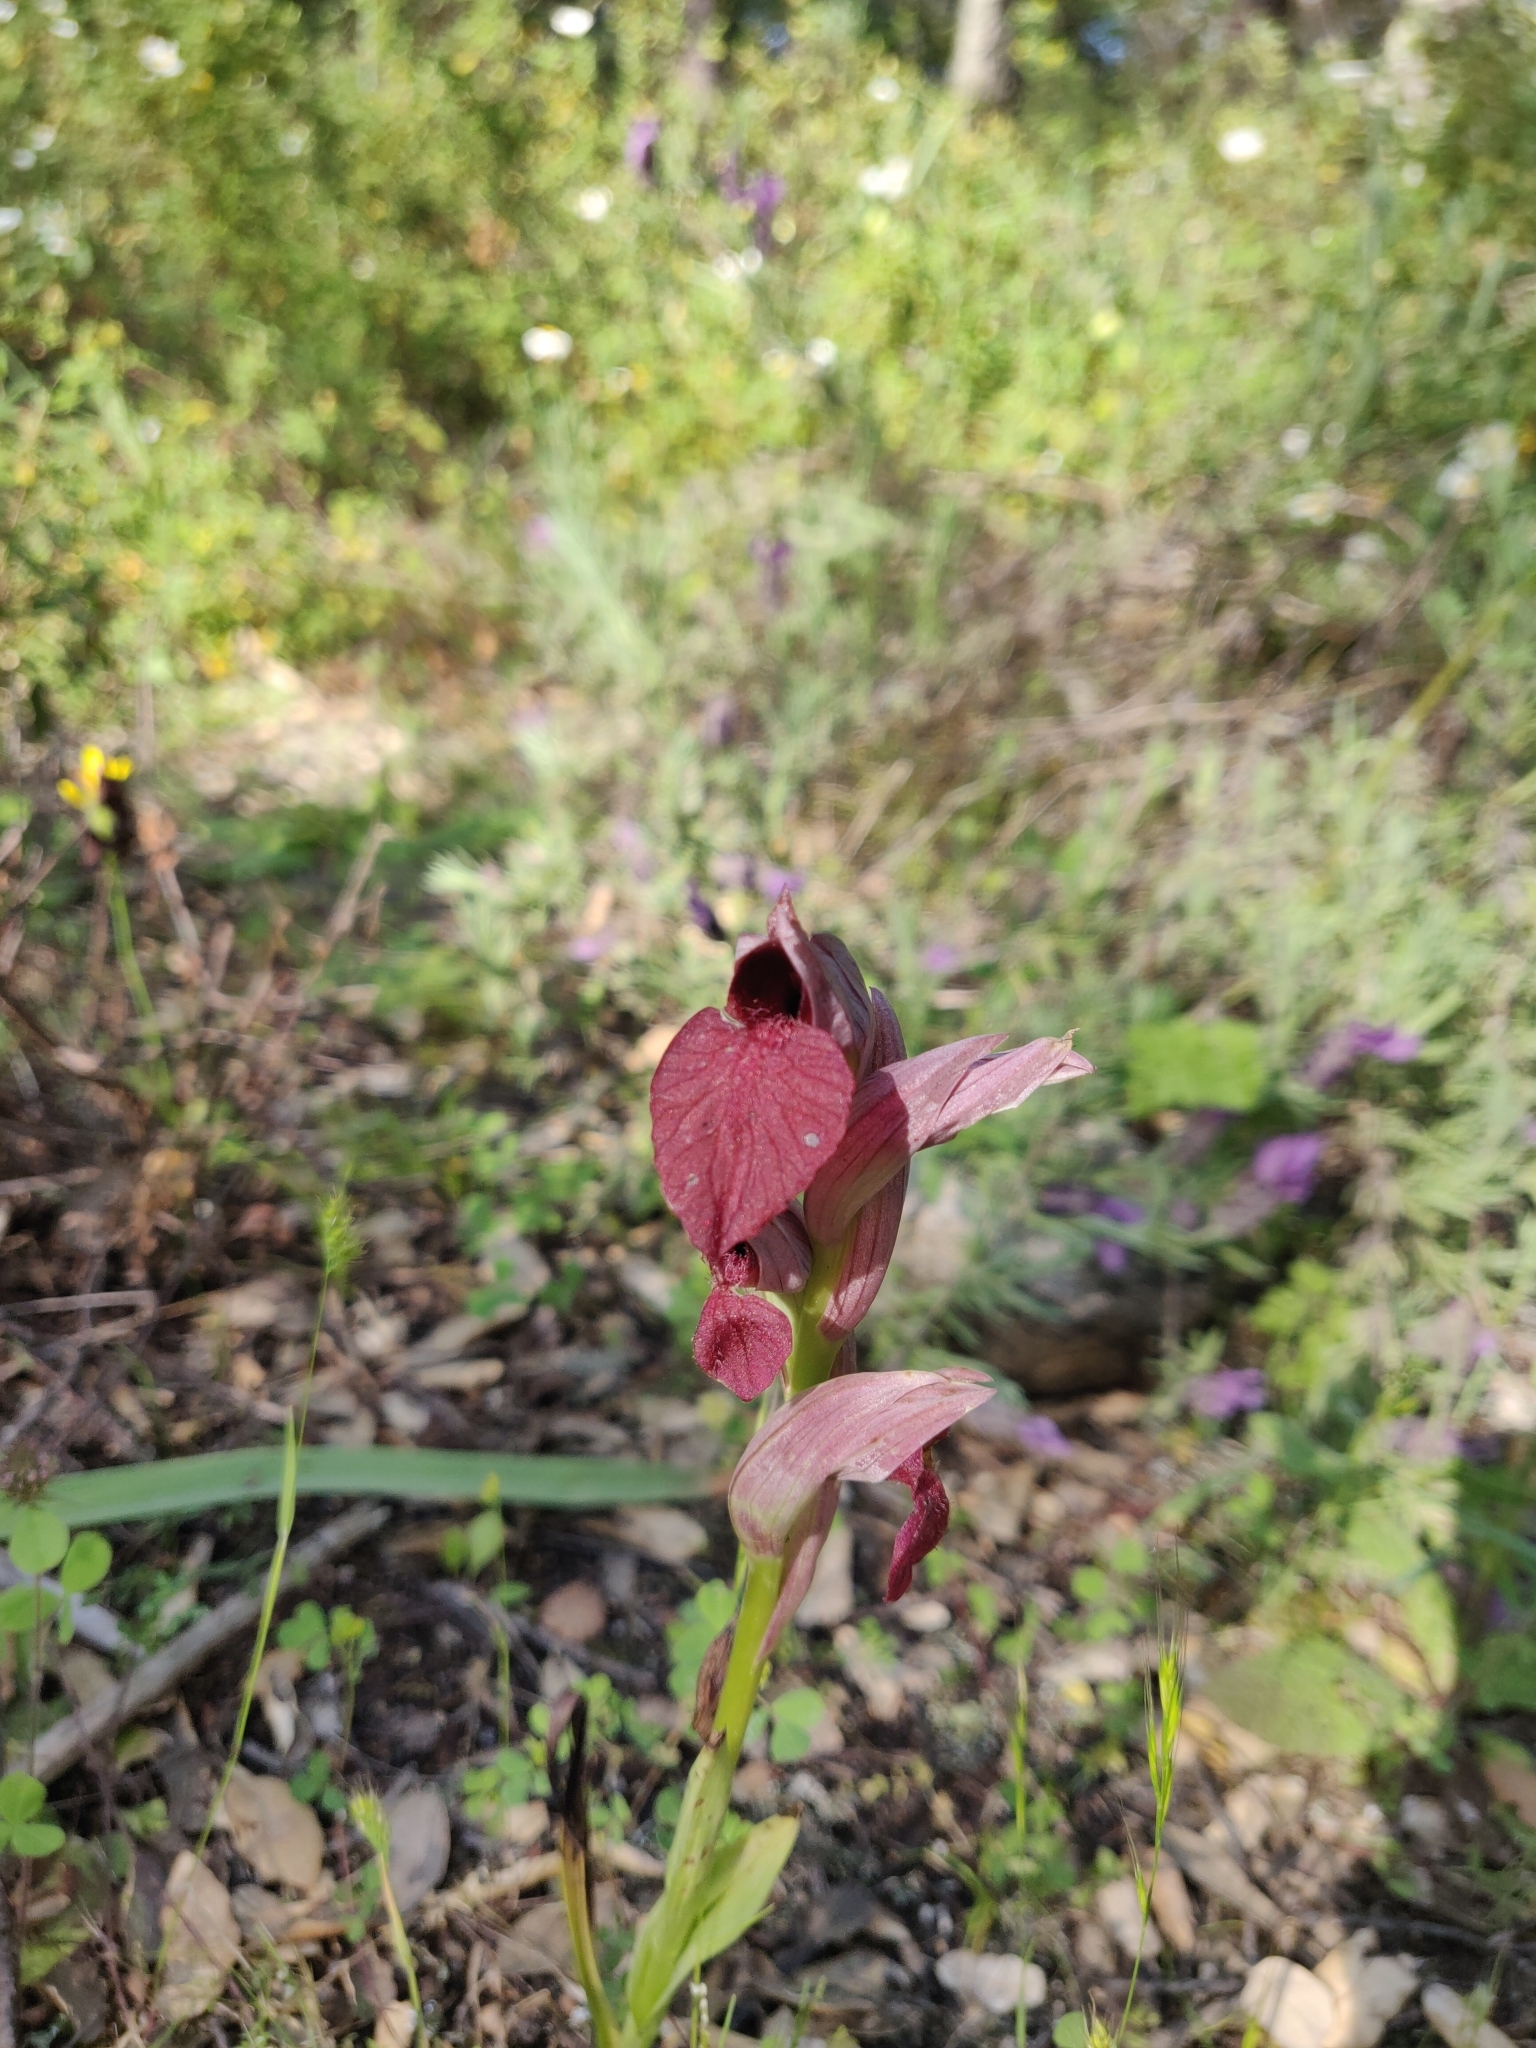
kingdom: Plantae
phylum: Tracheophyta
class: Liliopsida
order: Asparagales
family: Orchidaceae
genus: Serapias
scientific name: Serapias cordigera
